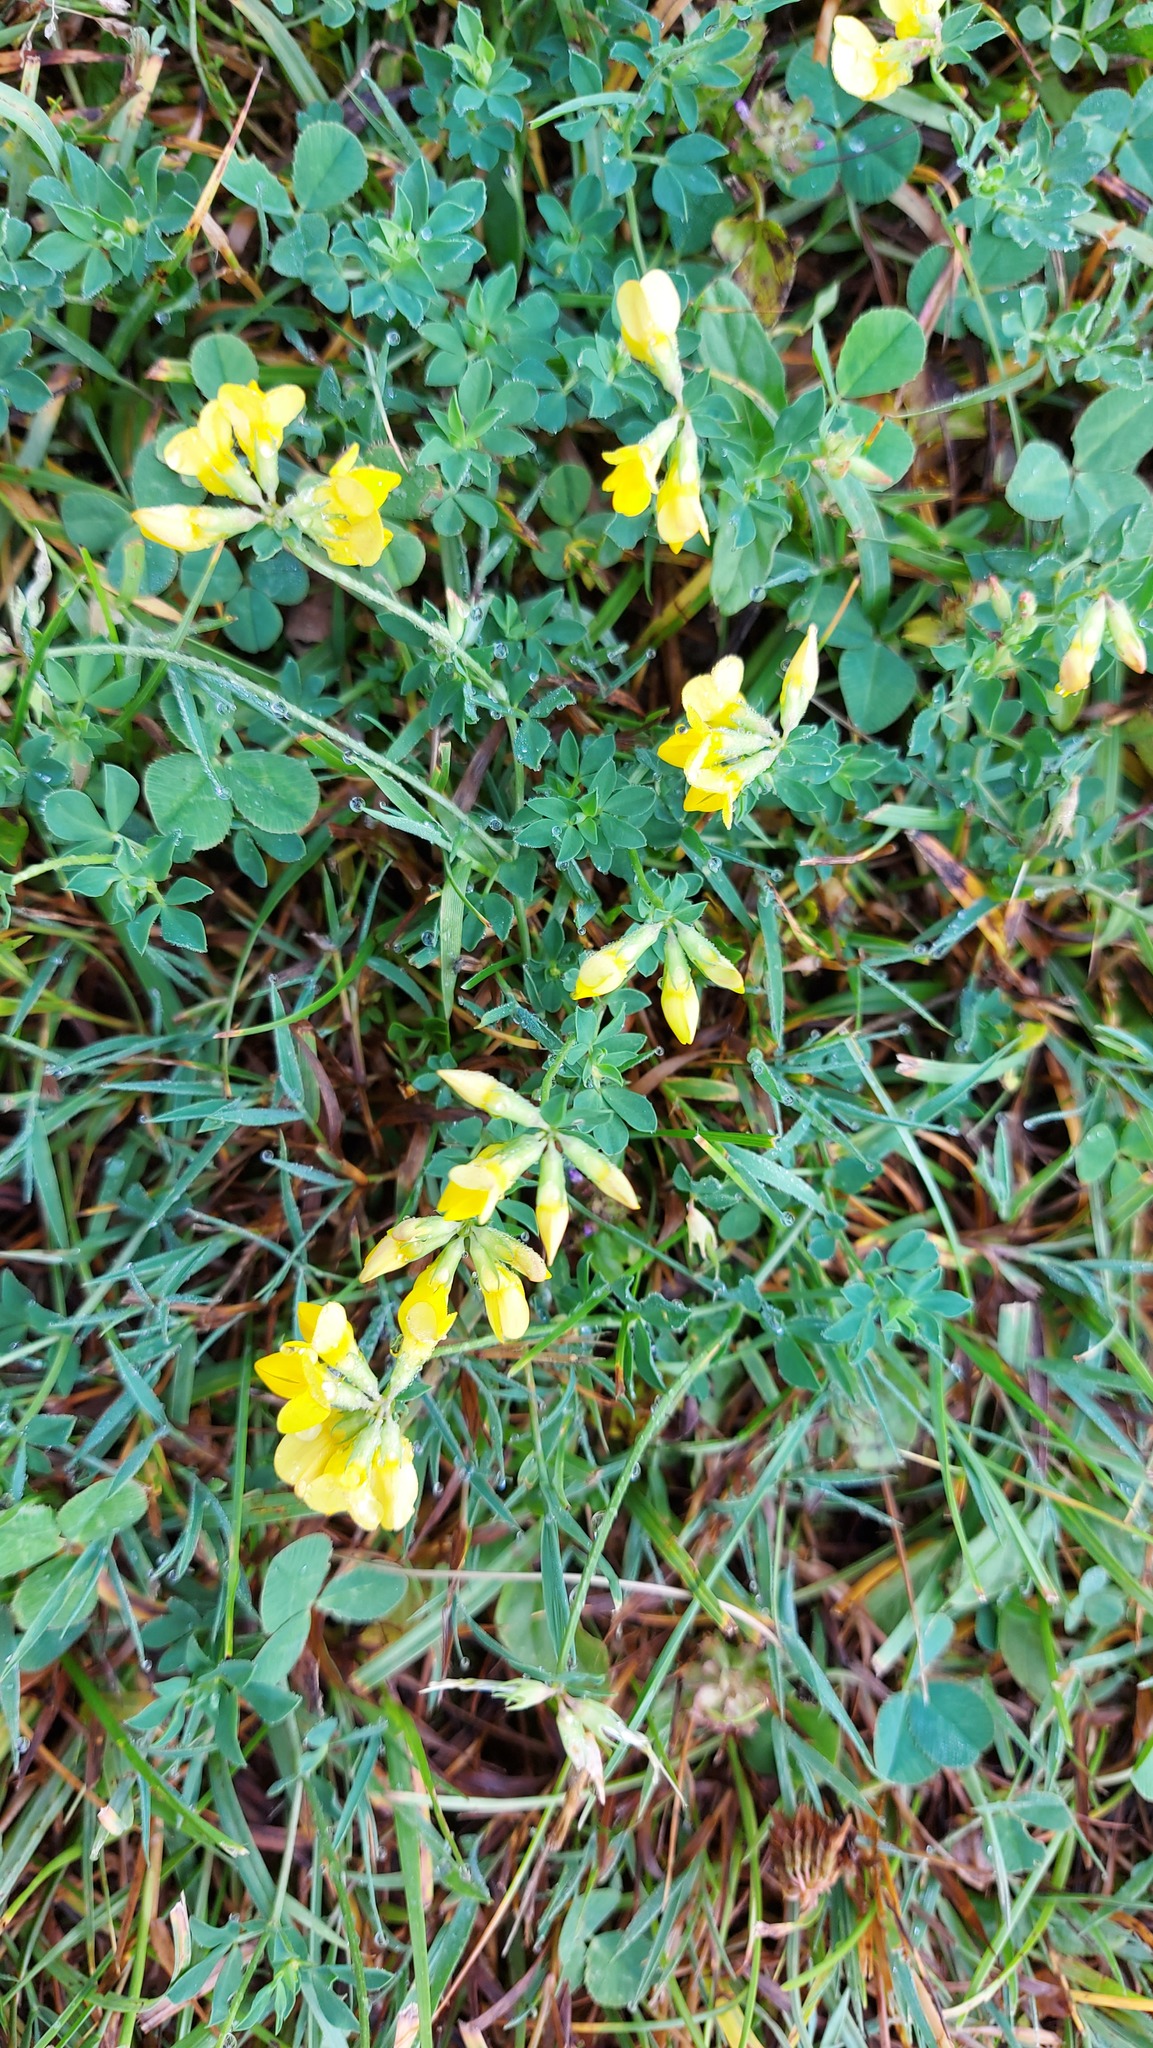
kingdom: Plantae
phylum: Tracheophyta
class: Magnoliopsida
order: Fabales
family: Fabaceae
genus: Lotus
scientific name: Lotus corniculatus
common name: Common bird's-foot-trefoil
